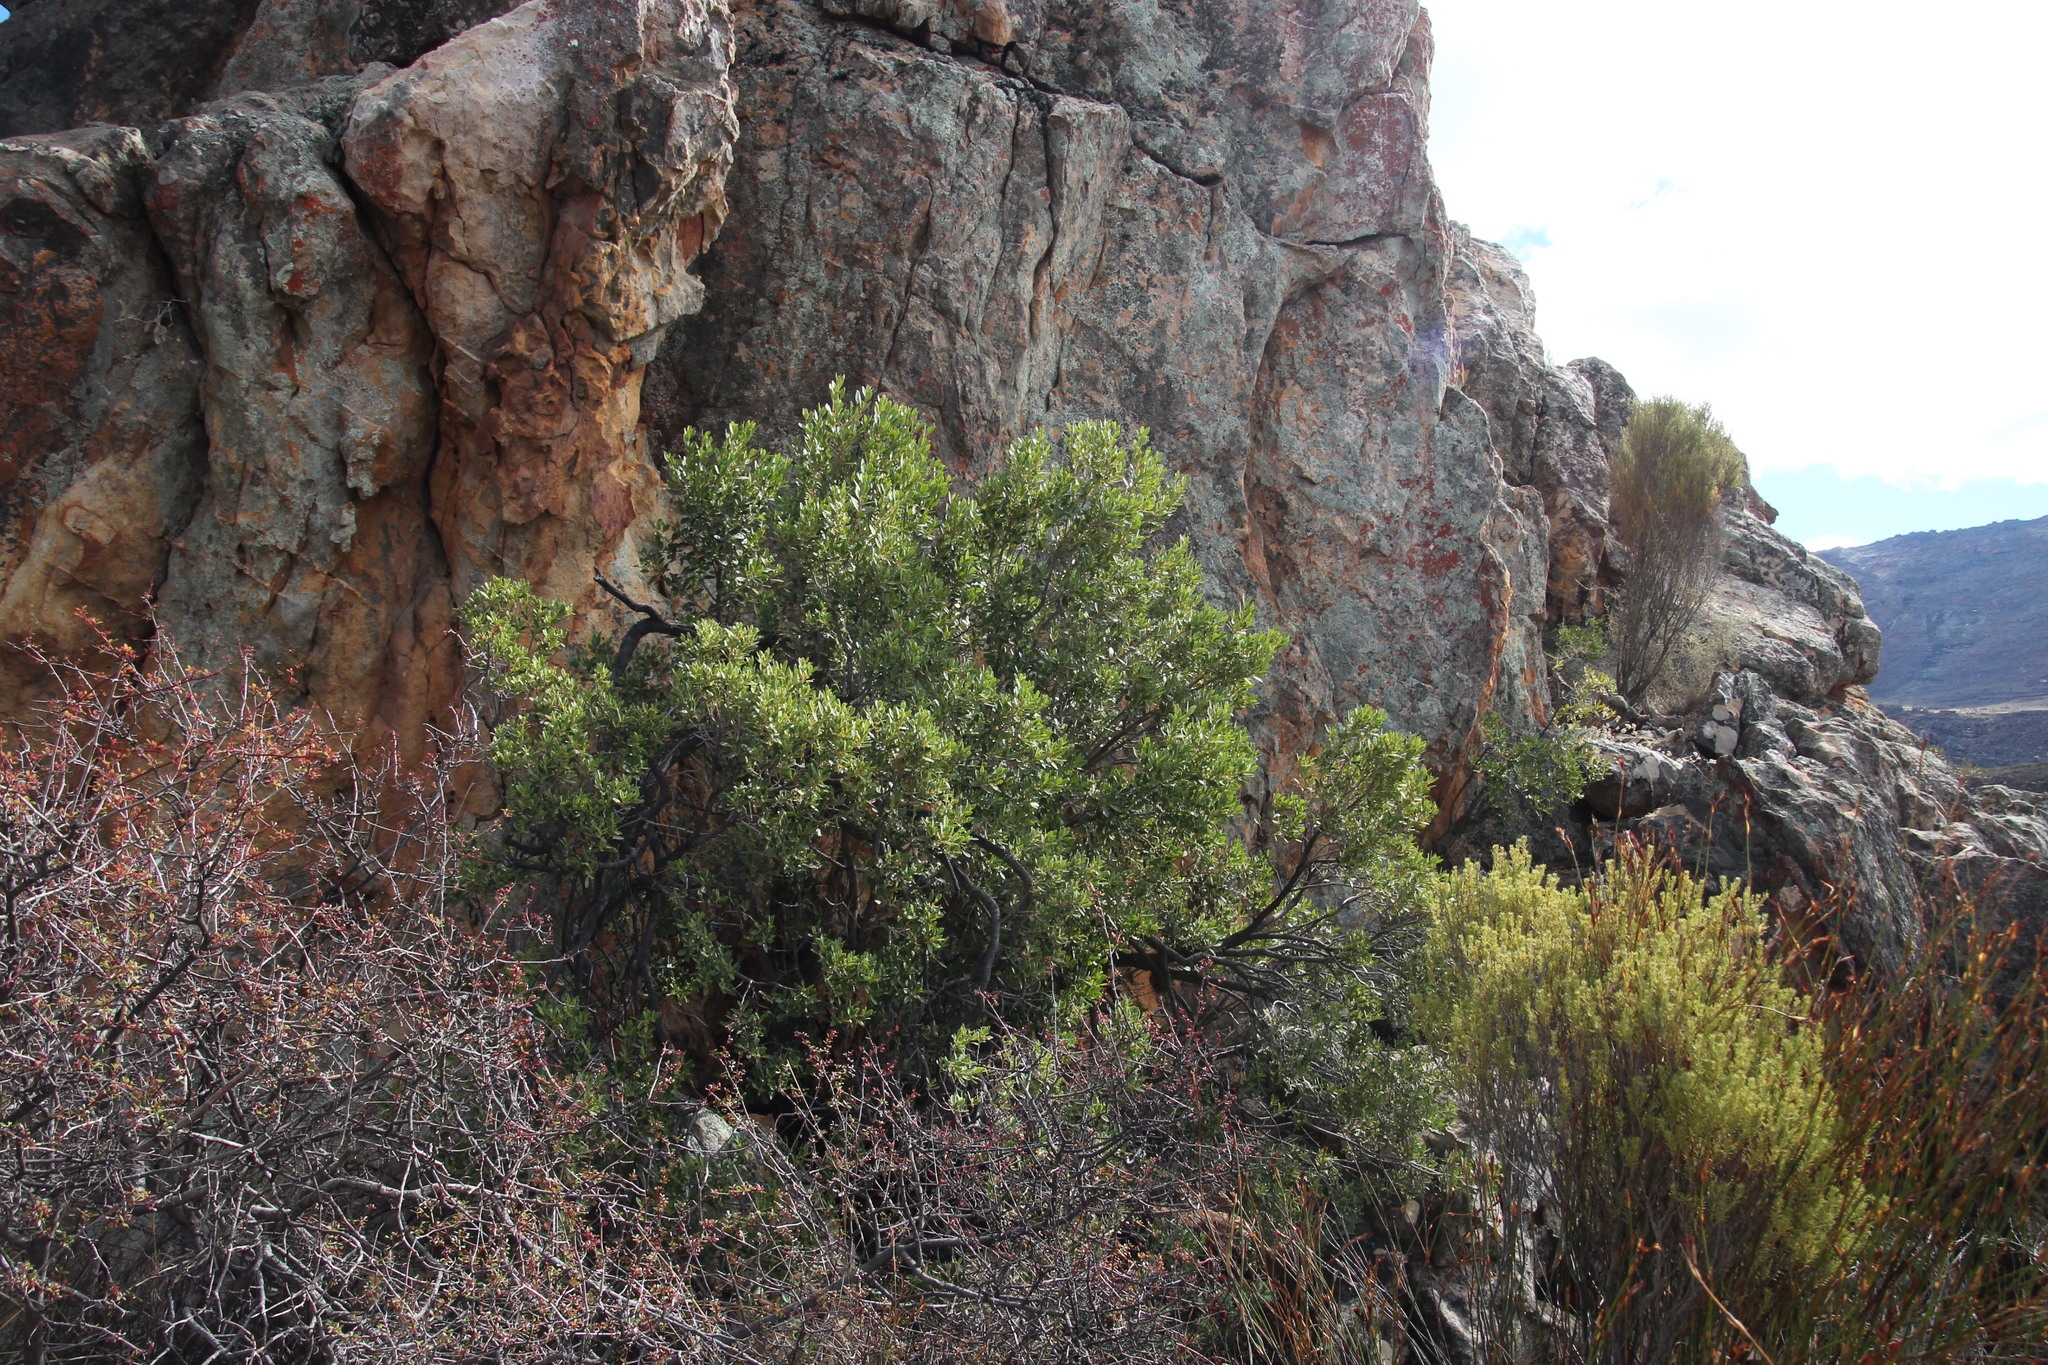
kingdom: Plantae
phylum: Tracheophyta
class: Magnoliopsida
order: Celastrales
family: Celastraceae
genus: Gymnosporia
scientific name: Gymnosporia laurina
